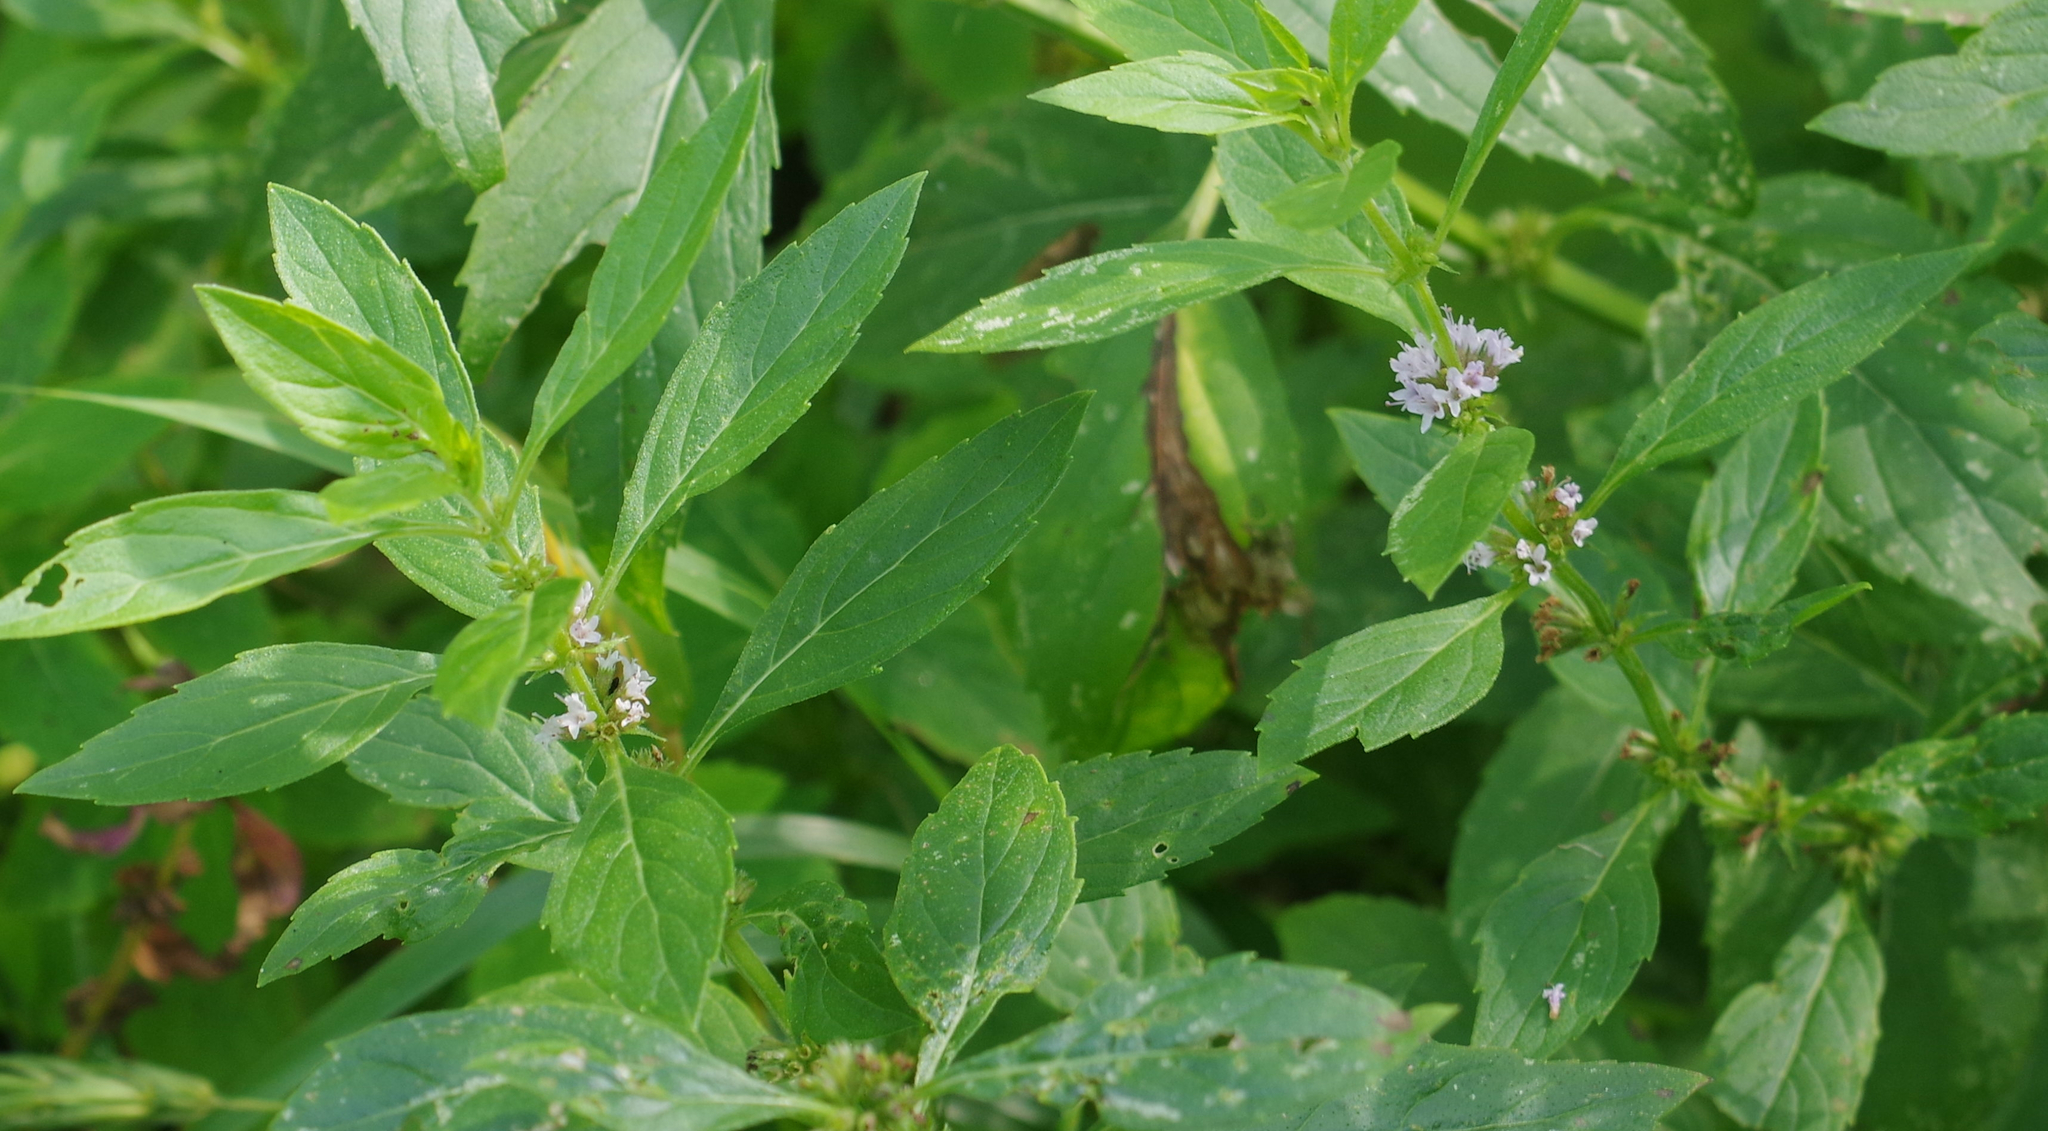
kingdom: Plantae
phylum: Tracheophyta
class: Magnoliopsida
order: Lamiales
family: Lamiaceae
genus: Mentha
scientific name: Mentha canadensis
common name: American corn mint
